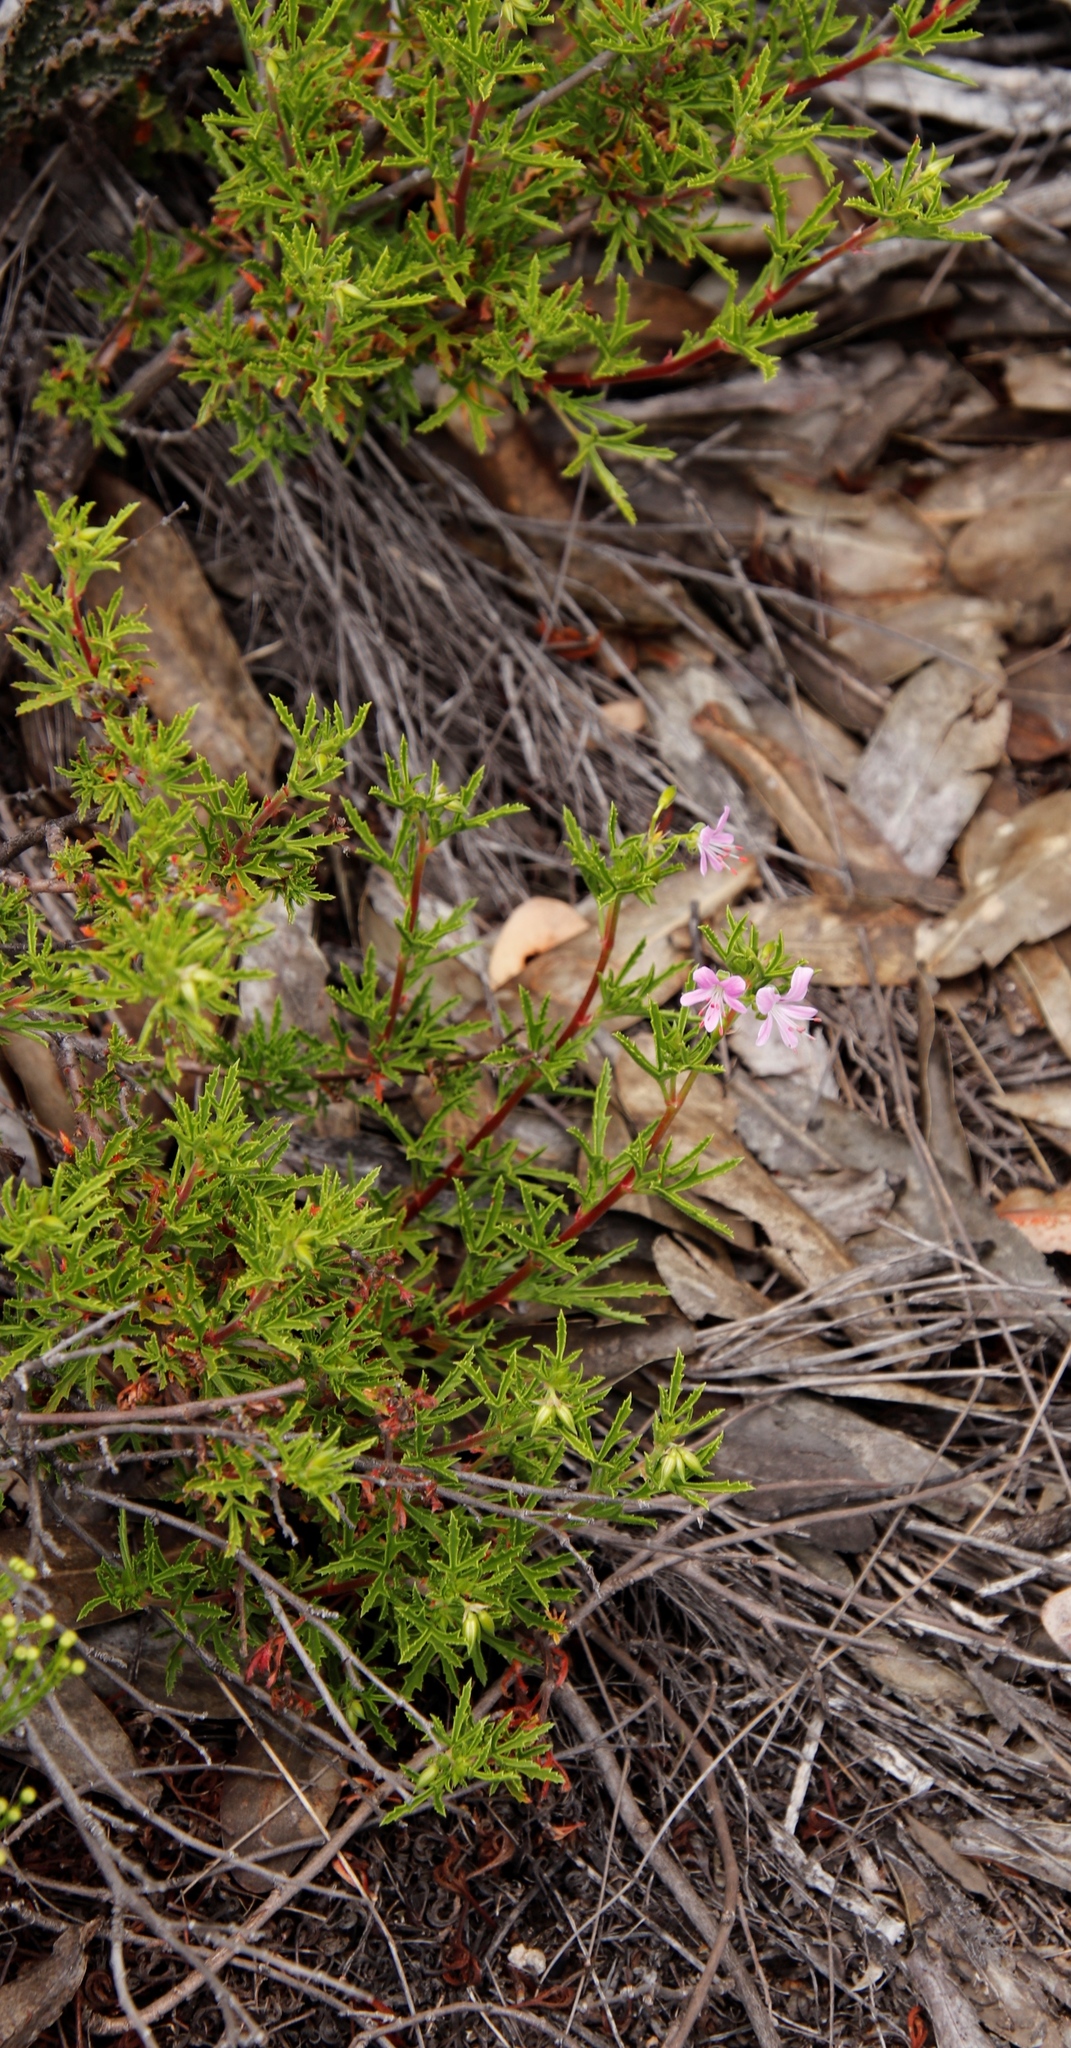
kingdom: Plantae
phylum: Tracheophyta
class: Magnoliopsida
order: Geraniales
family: Geraniaceae
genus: Pelargonium
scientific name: Pelargonium scabrum
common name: Apricot geranium
